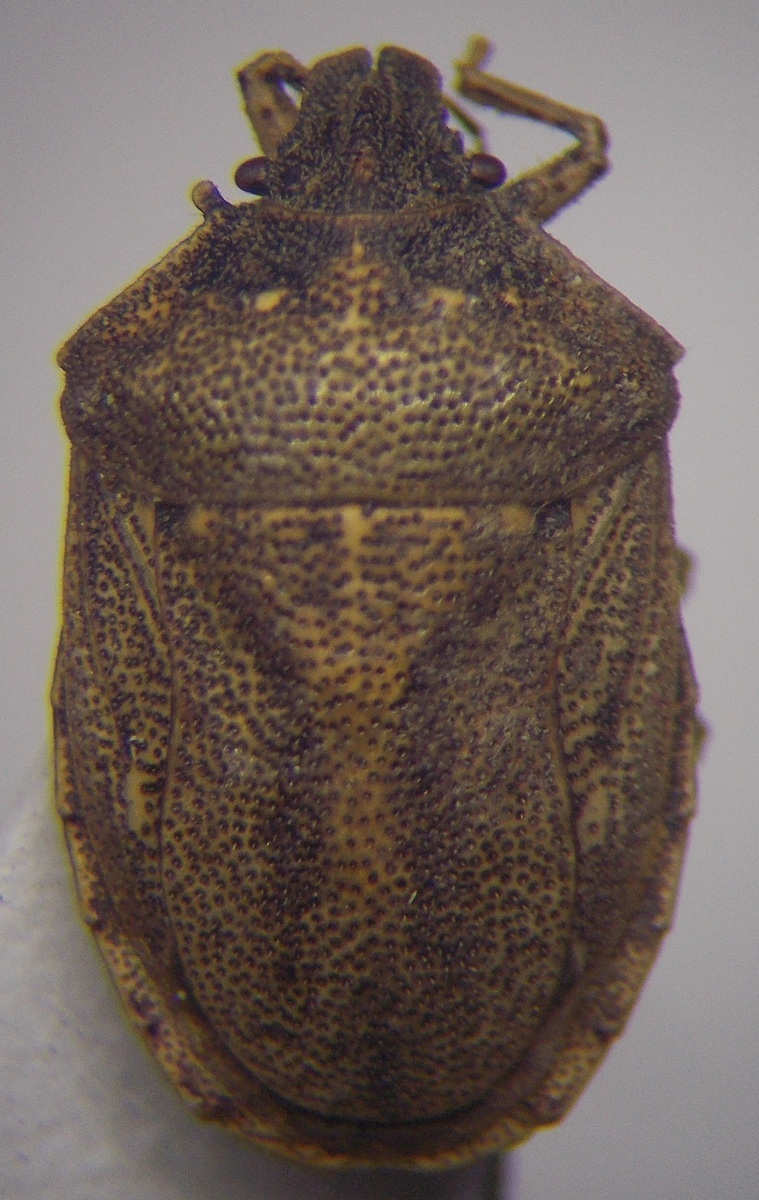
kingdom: Animalia
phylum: Arthropoda
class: Insecta
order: Hemiptera
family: Pentatomidae
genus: Podops
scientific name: Podops rectidens
